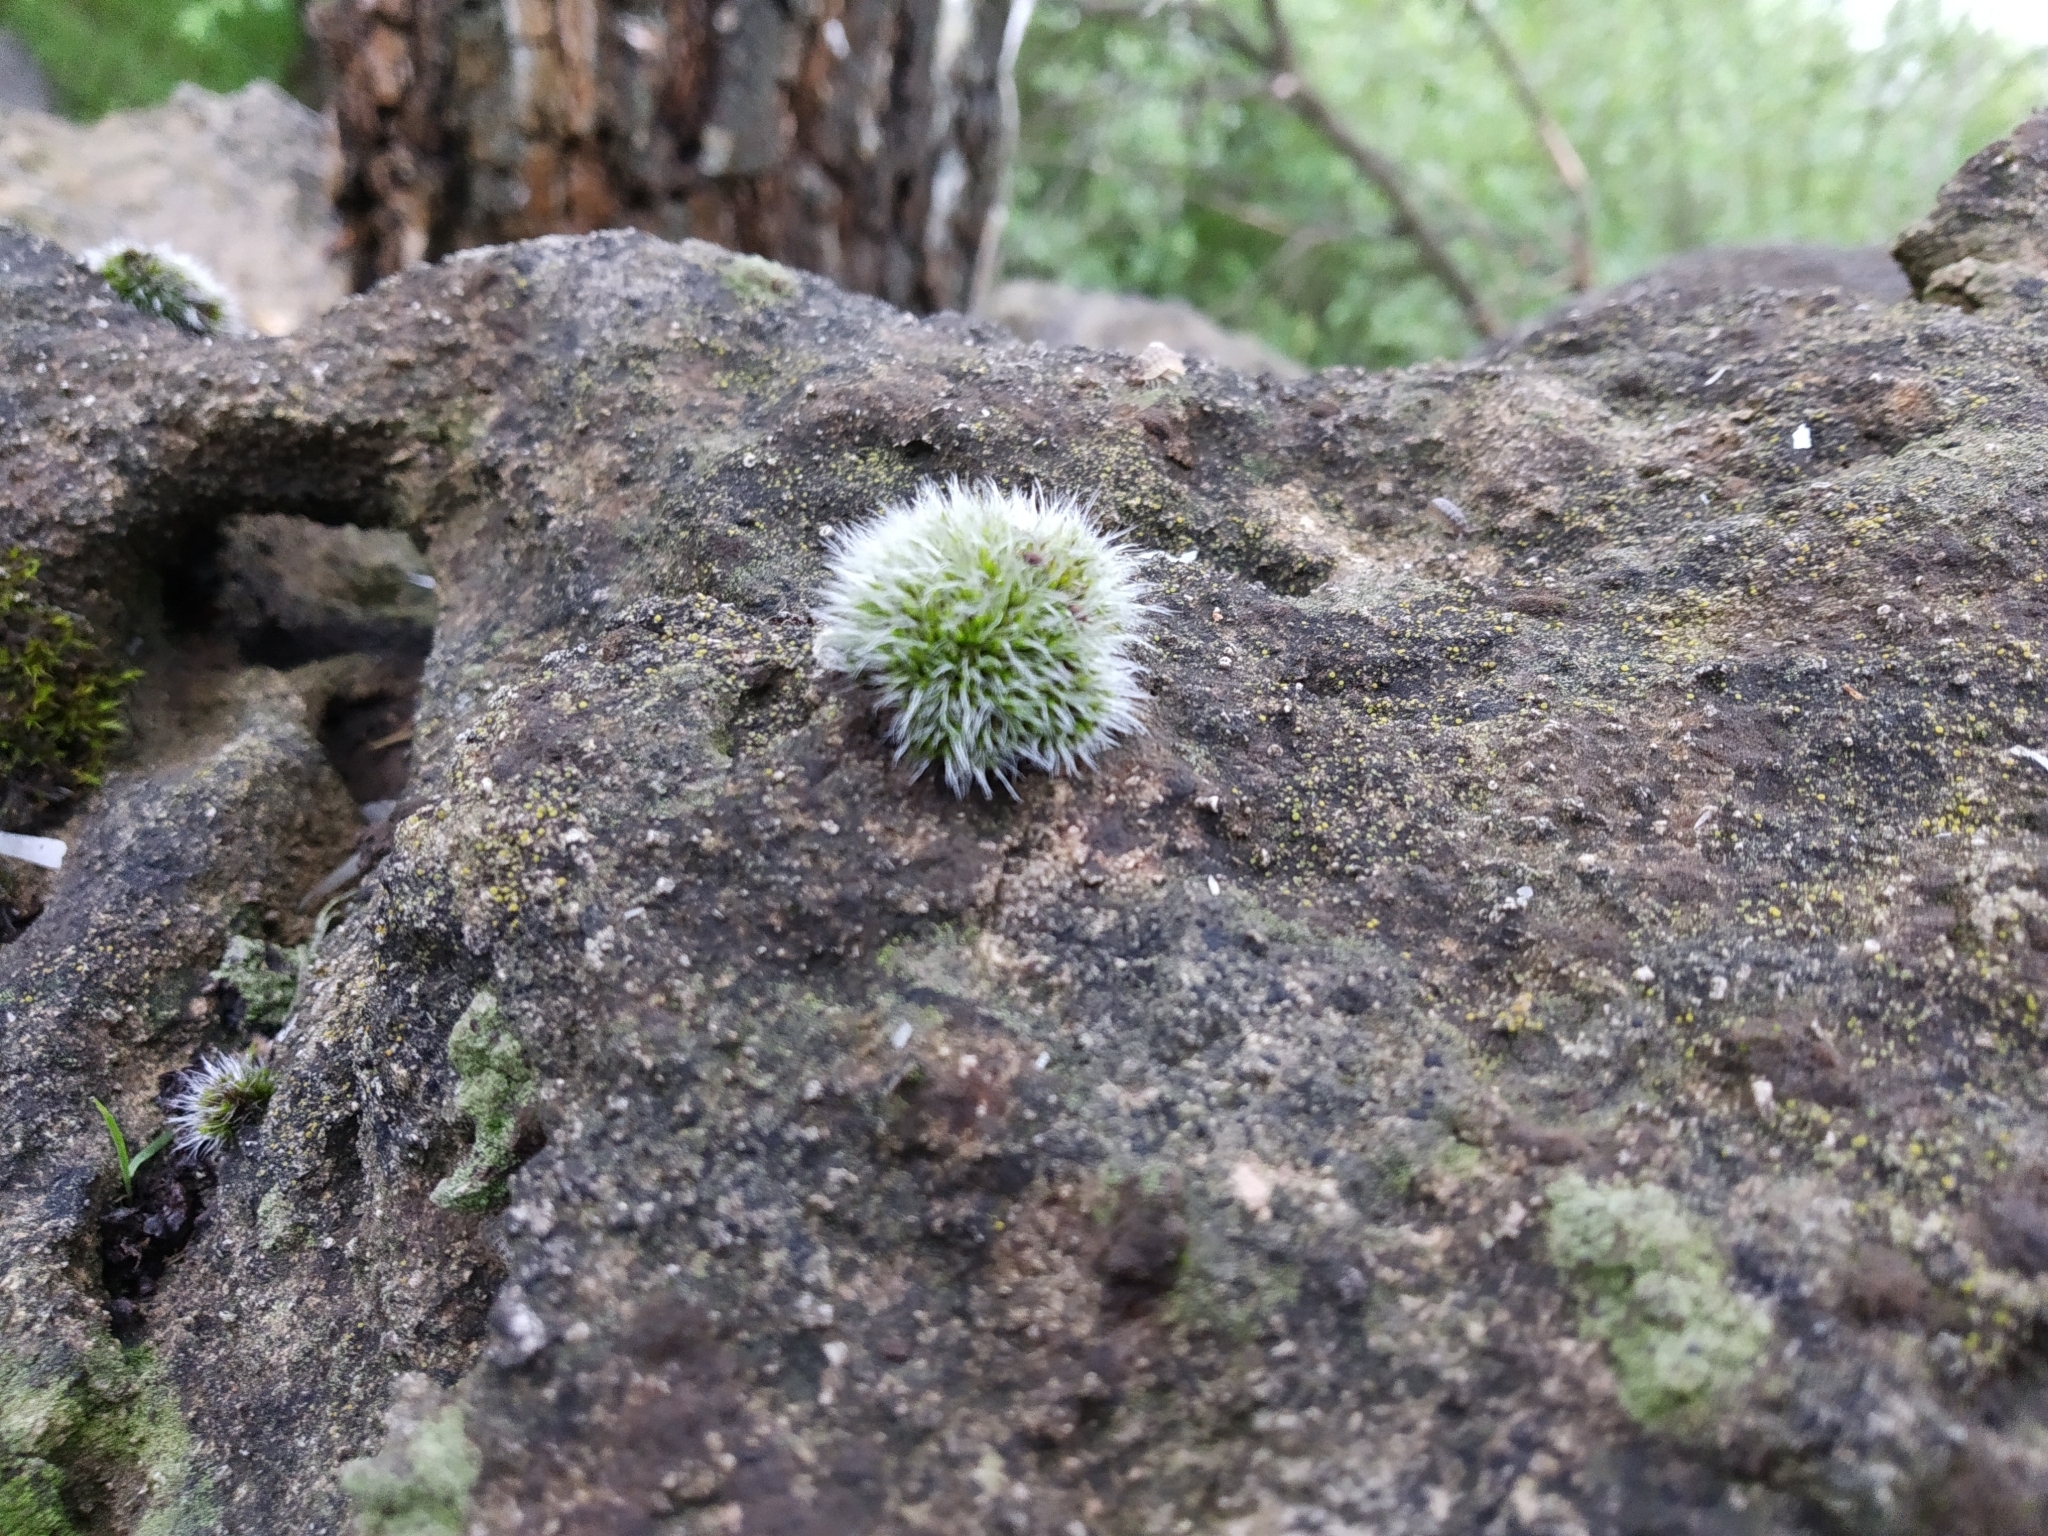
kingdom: Plantae
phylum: Bryophyta
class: Bryopsida
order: Grimmiales
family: Grimmiaceae
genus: Grimmia
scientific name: Grimmia pulvinata
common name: Grey-cushioned grimmia
